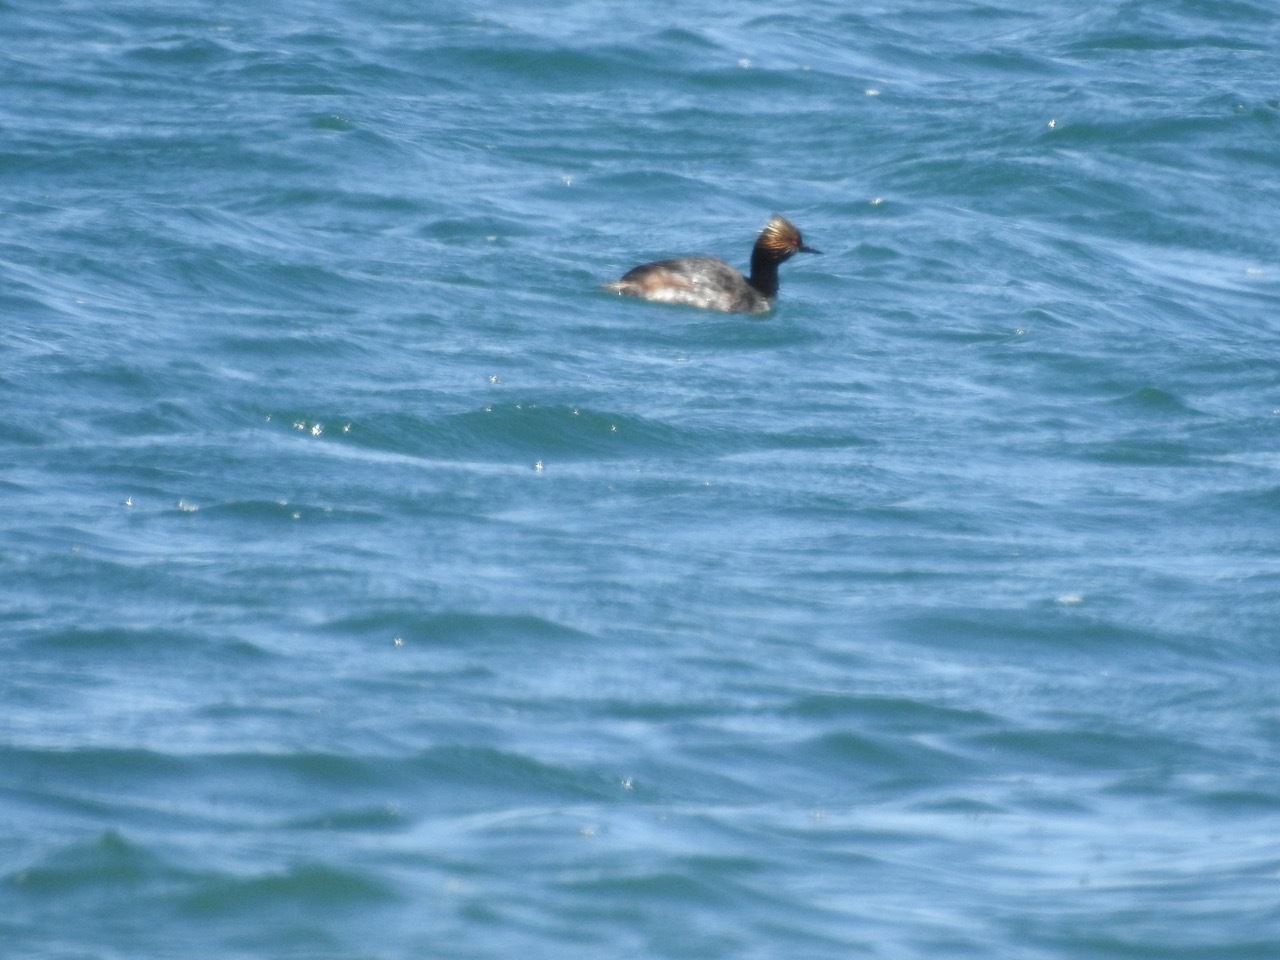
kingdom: Animalia
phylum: Chordata
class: Aves
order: Podicipediformes
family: Podicipedidae
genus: Podiceps
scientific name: Podiceps nigricollis
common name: Black-necked grebe
